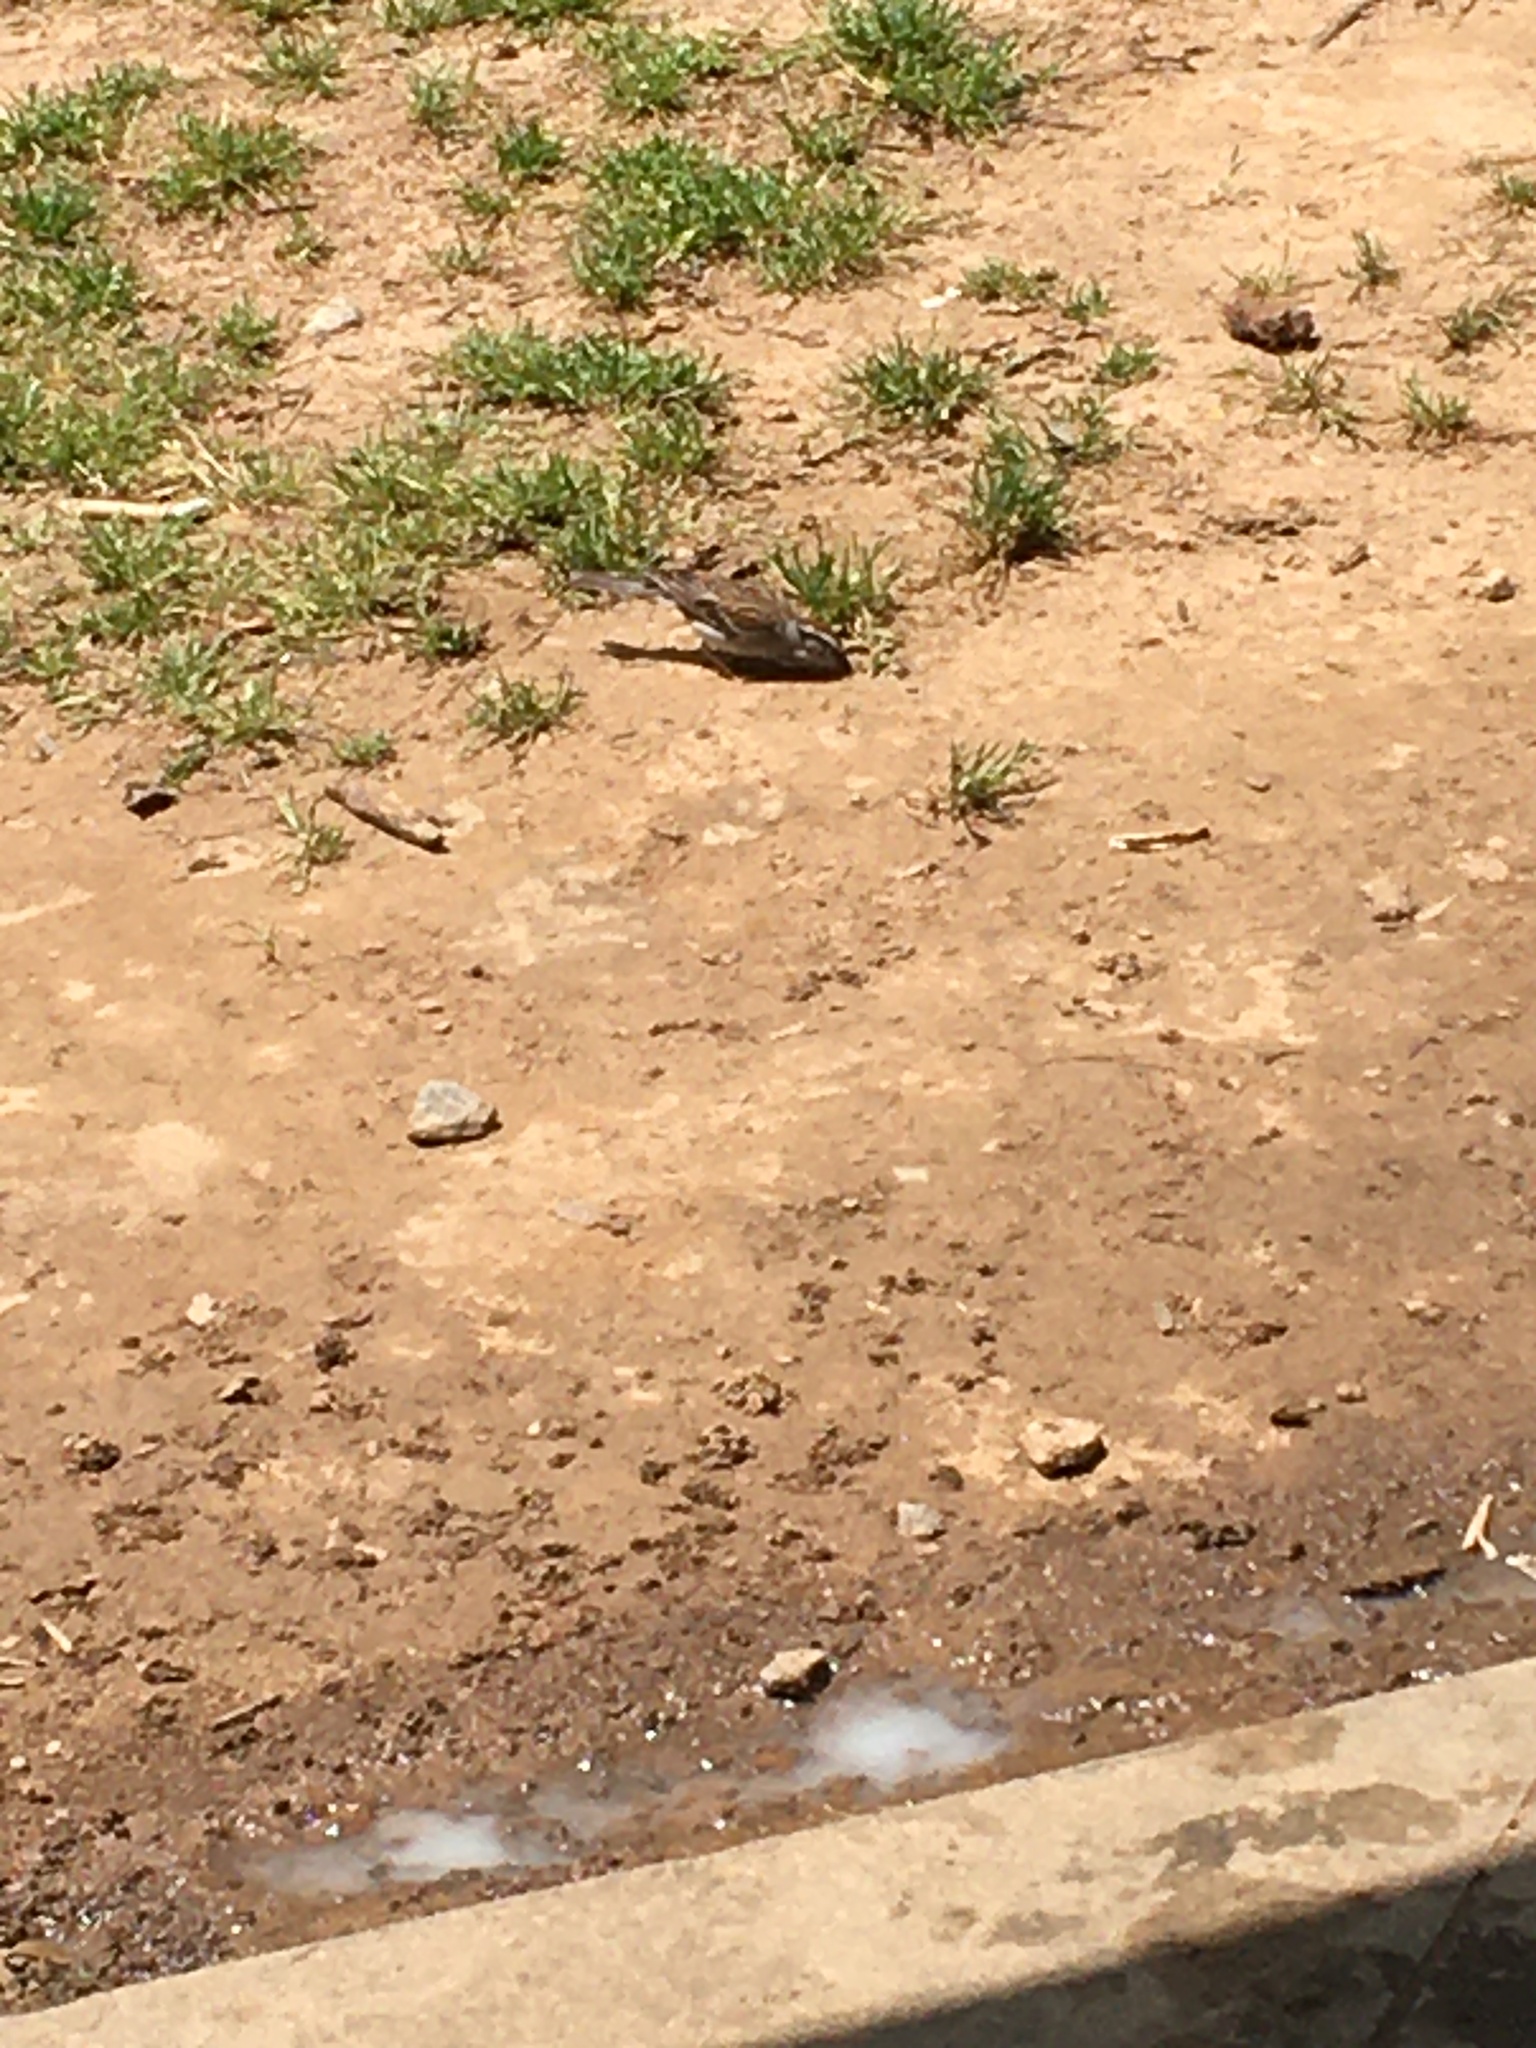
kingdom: Animalia
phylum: Chordata
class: Aves
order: Passeriformes
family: Passerellidae
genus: Spizella
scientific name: Spizella passerina
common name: Chipping sparrow
